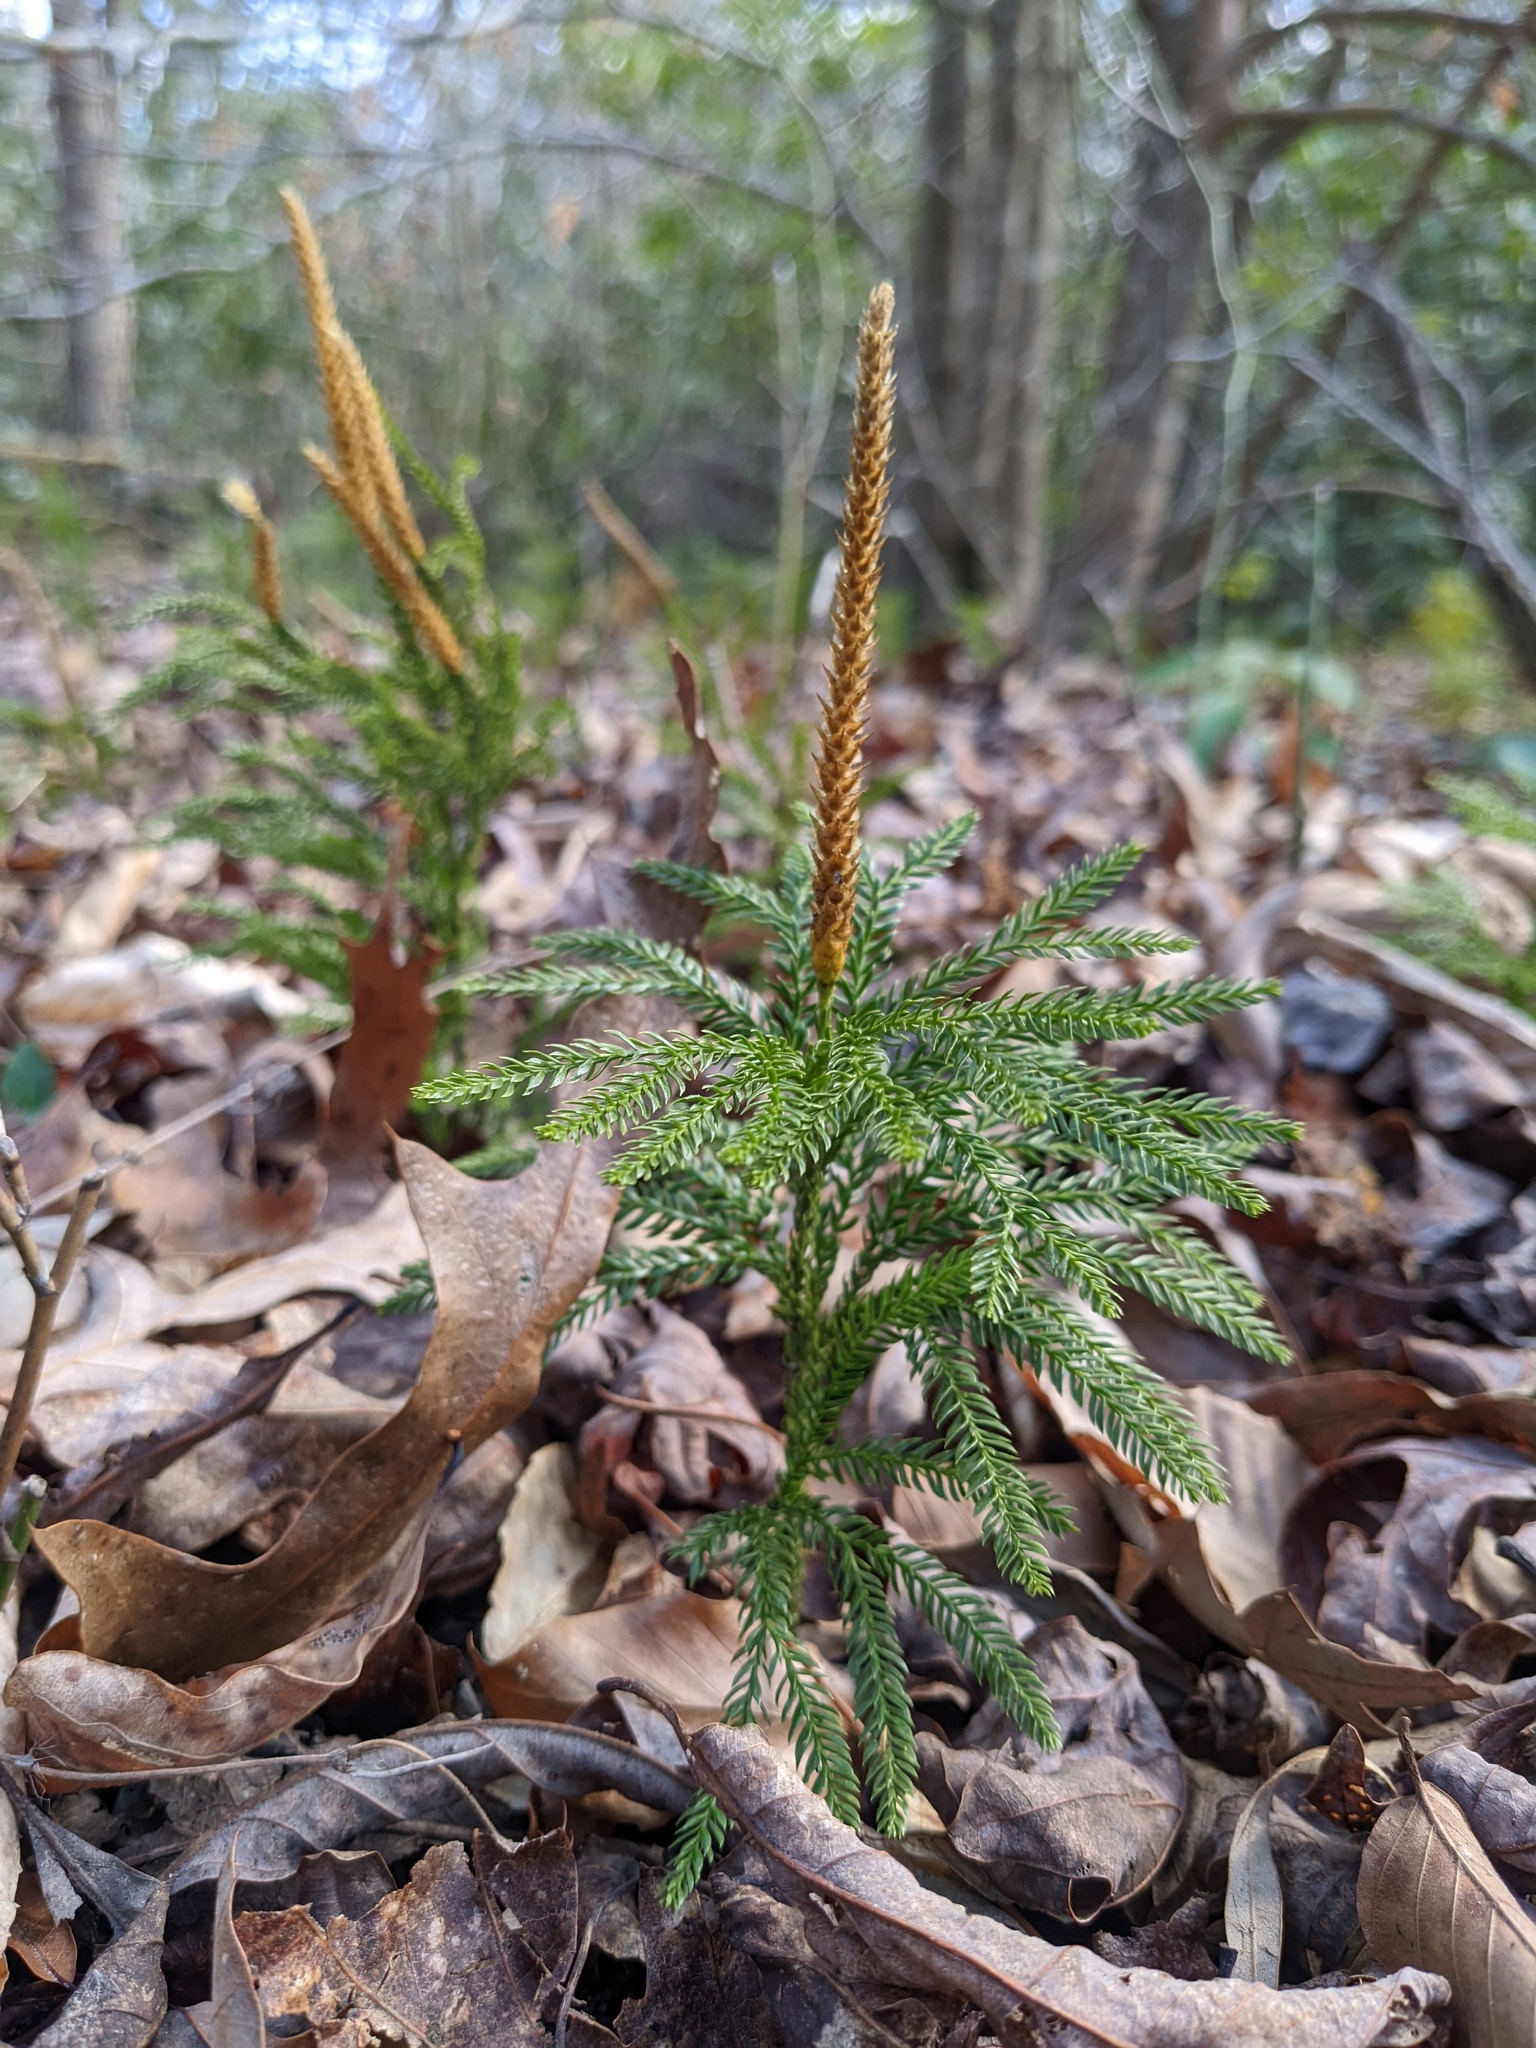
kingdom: Plantae
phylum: Tracheophyta
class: Lycopodiopsida
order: Lycopodiales
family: Lycopodiaceae
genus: Dendrolycopodium
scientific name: Dendrolycopodium obscurum
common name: Common ground-pine
